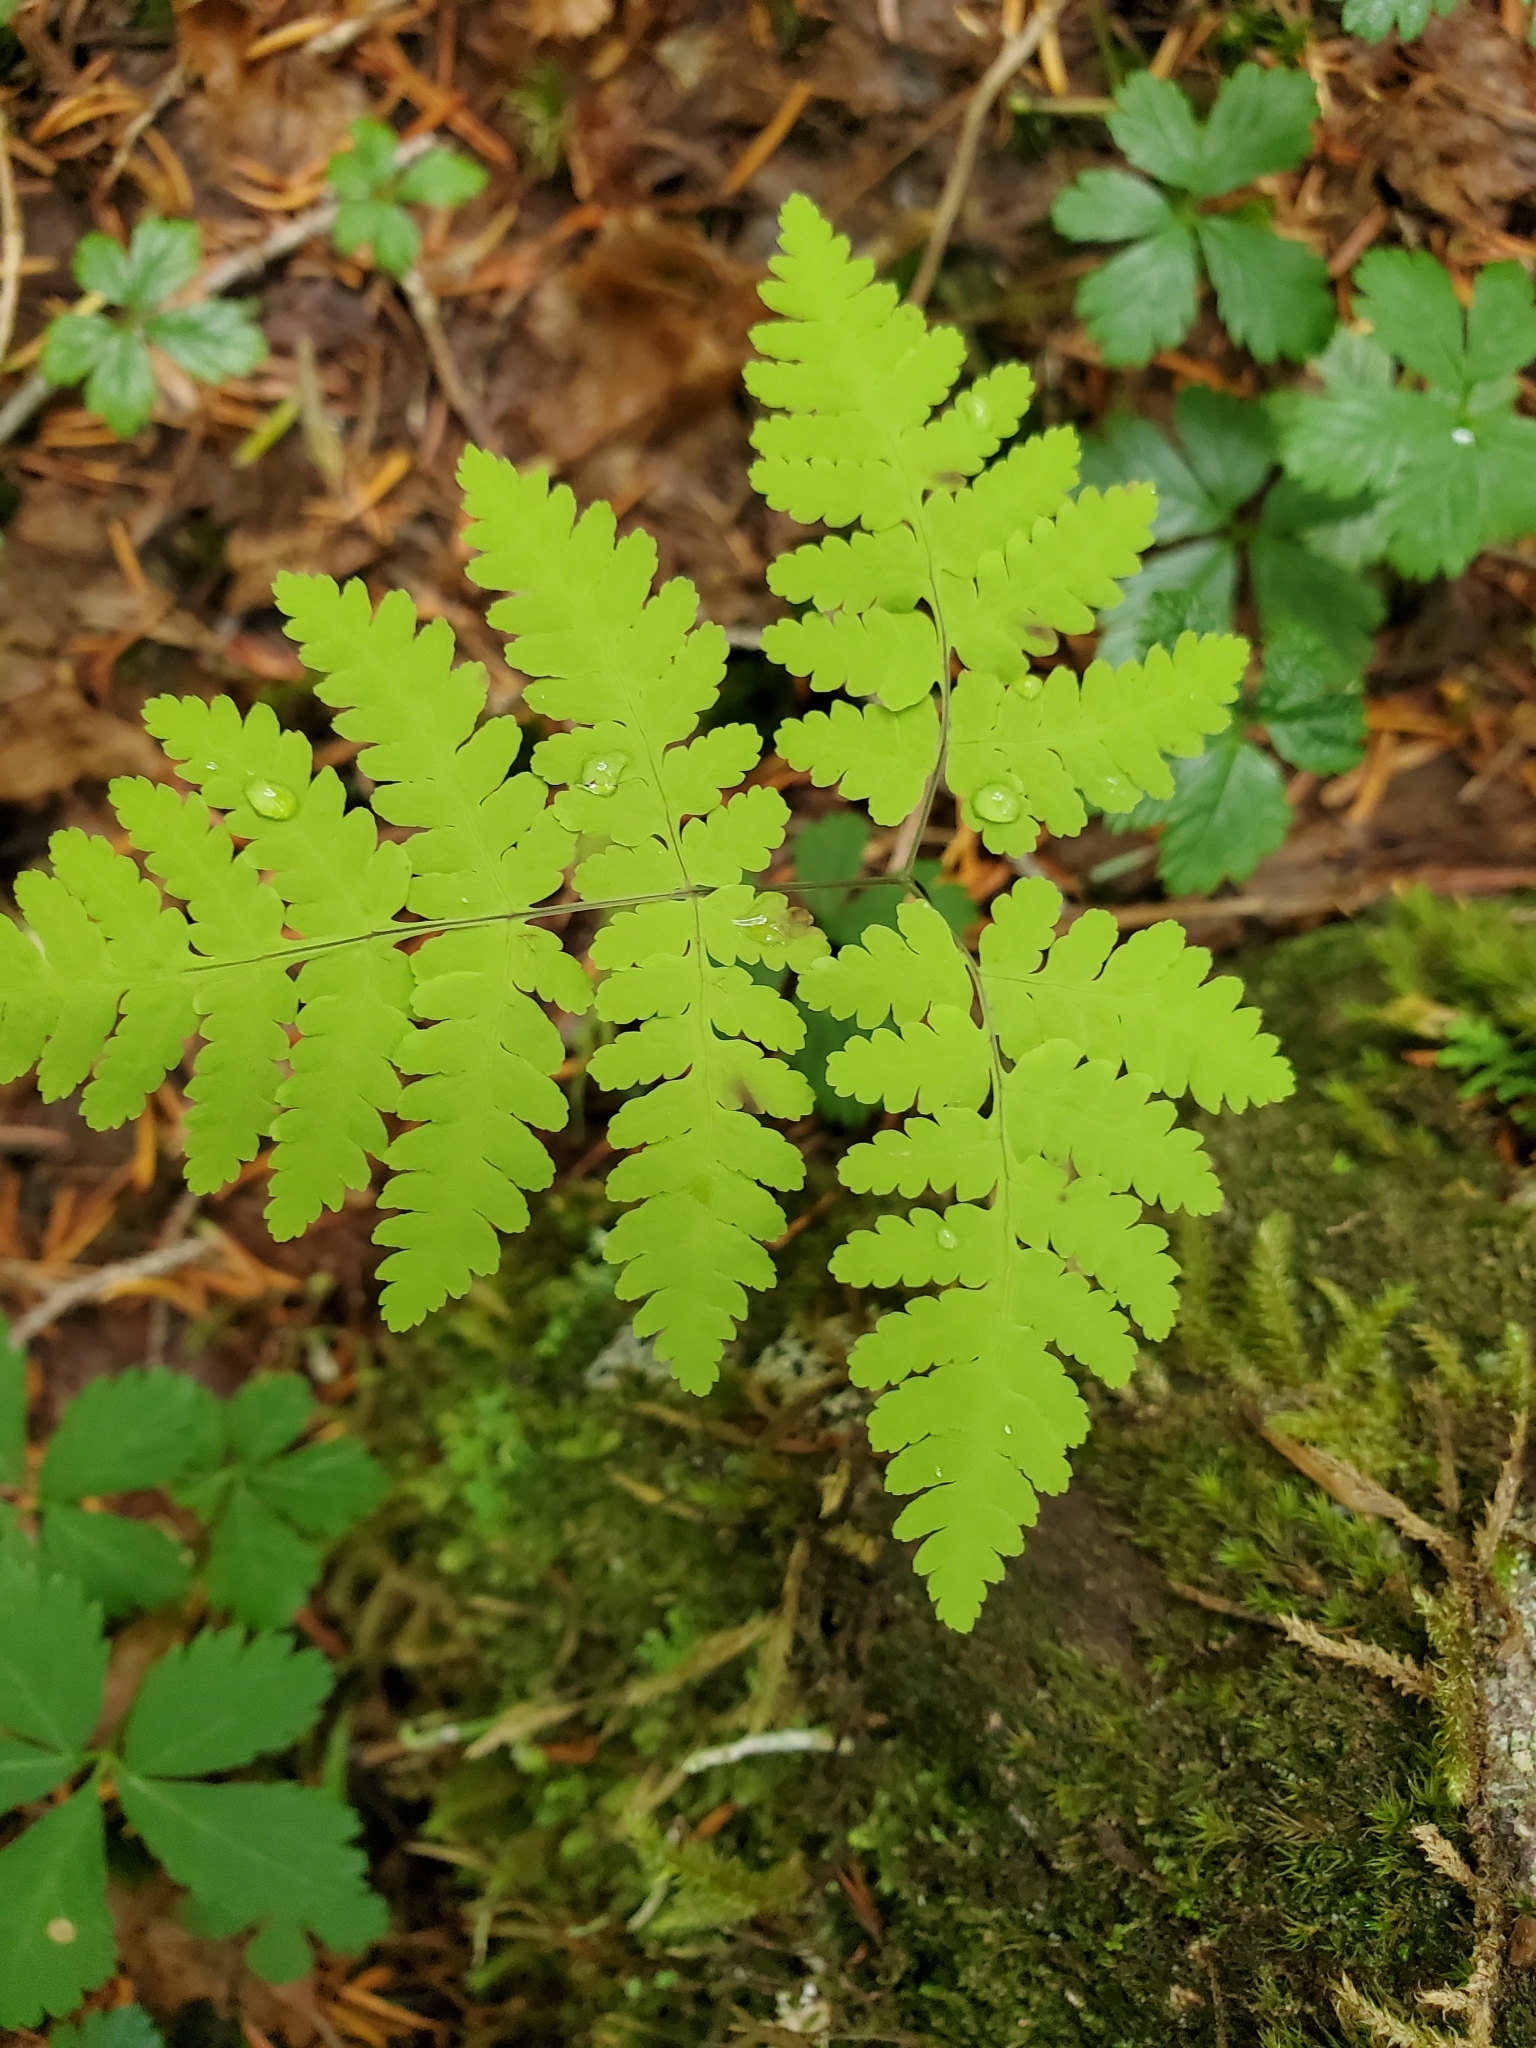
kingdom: Plantae
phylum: Tracheophyta
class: Polypodiopsida
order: Polypodiales
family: Cystopteridaceae
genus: Gymnocarpium
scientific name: Gymnocarpium dryopteris
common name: Oak fern
